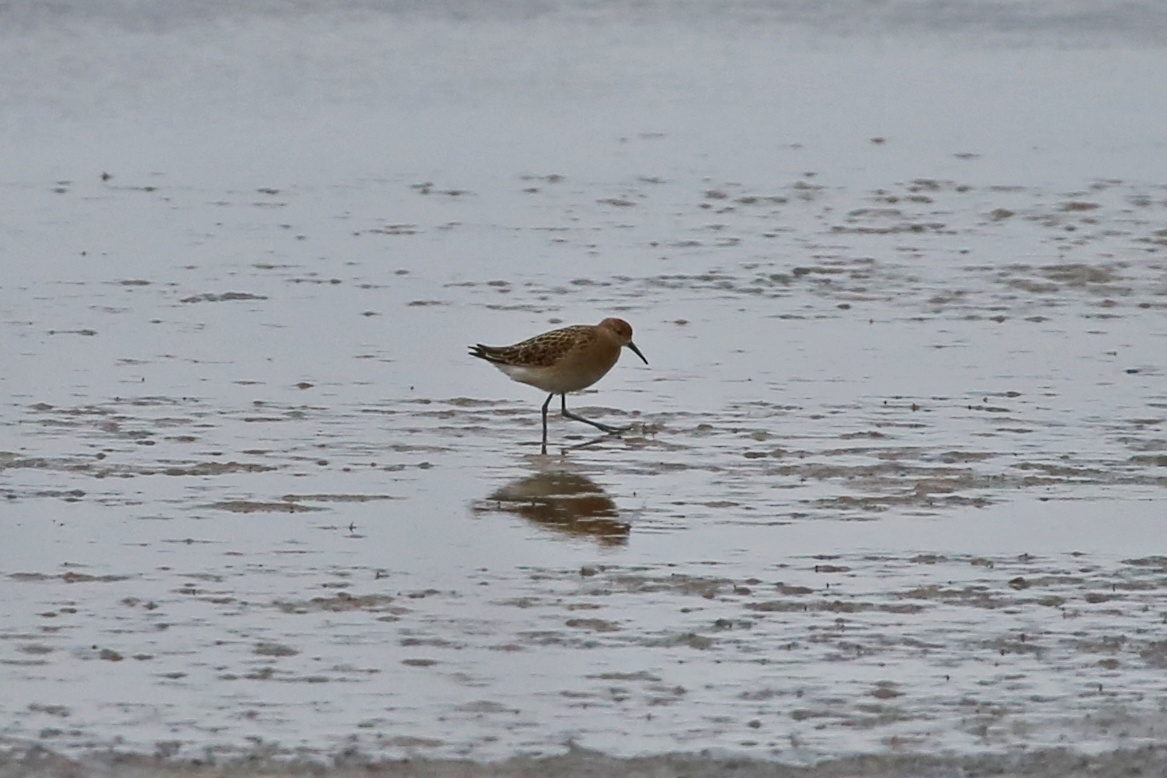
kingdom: Animalia
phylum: Chordata
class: Aves
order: Charadriiformes
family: Scolopacidae
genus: Calidris
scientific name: Calidris pugnax
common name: Ruff
